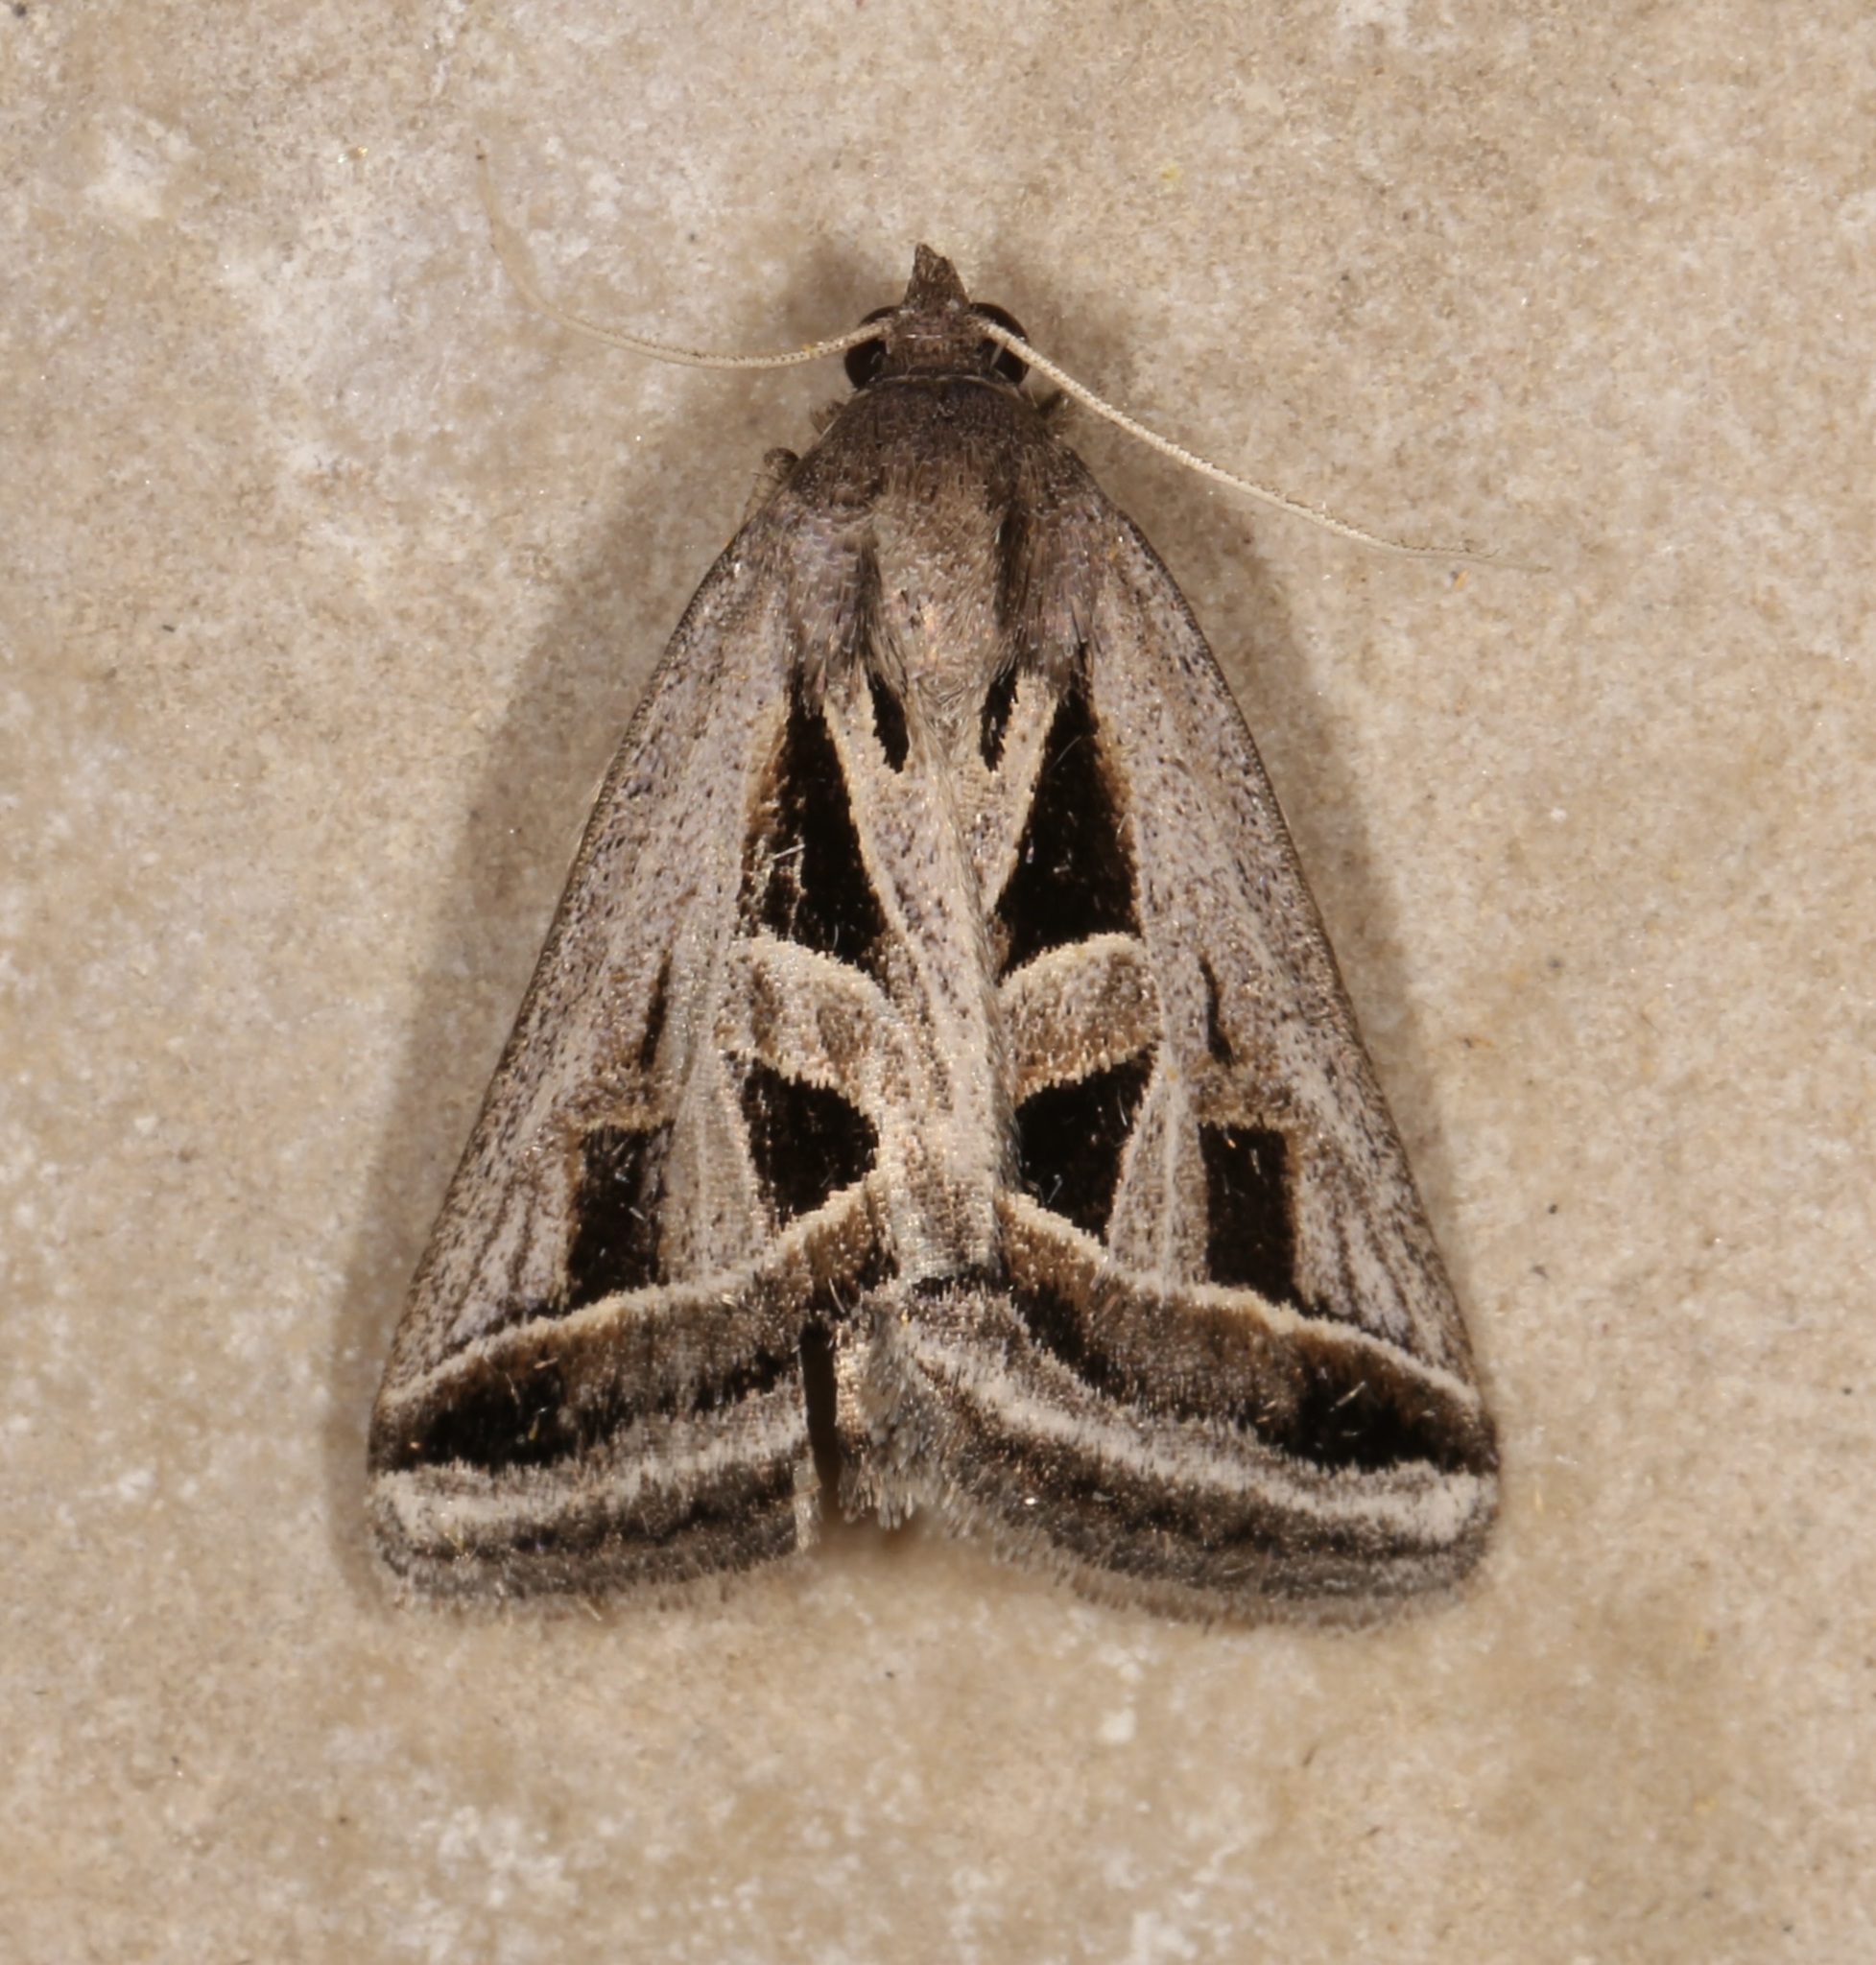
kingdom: Animalia
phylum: Arthropoda
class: Insecta
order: Lepidoptera
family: Erebidae
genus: Callistege
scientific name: Callistege diagonalis
